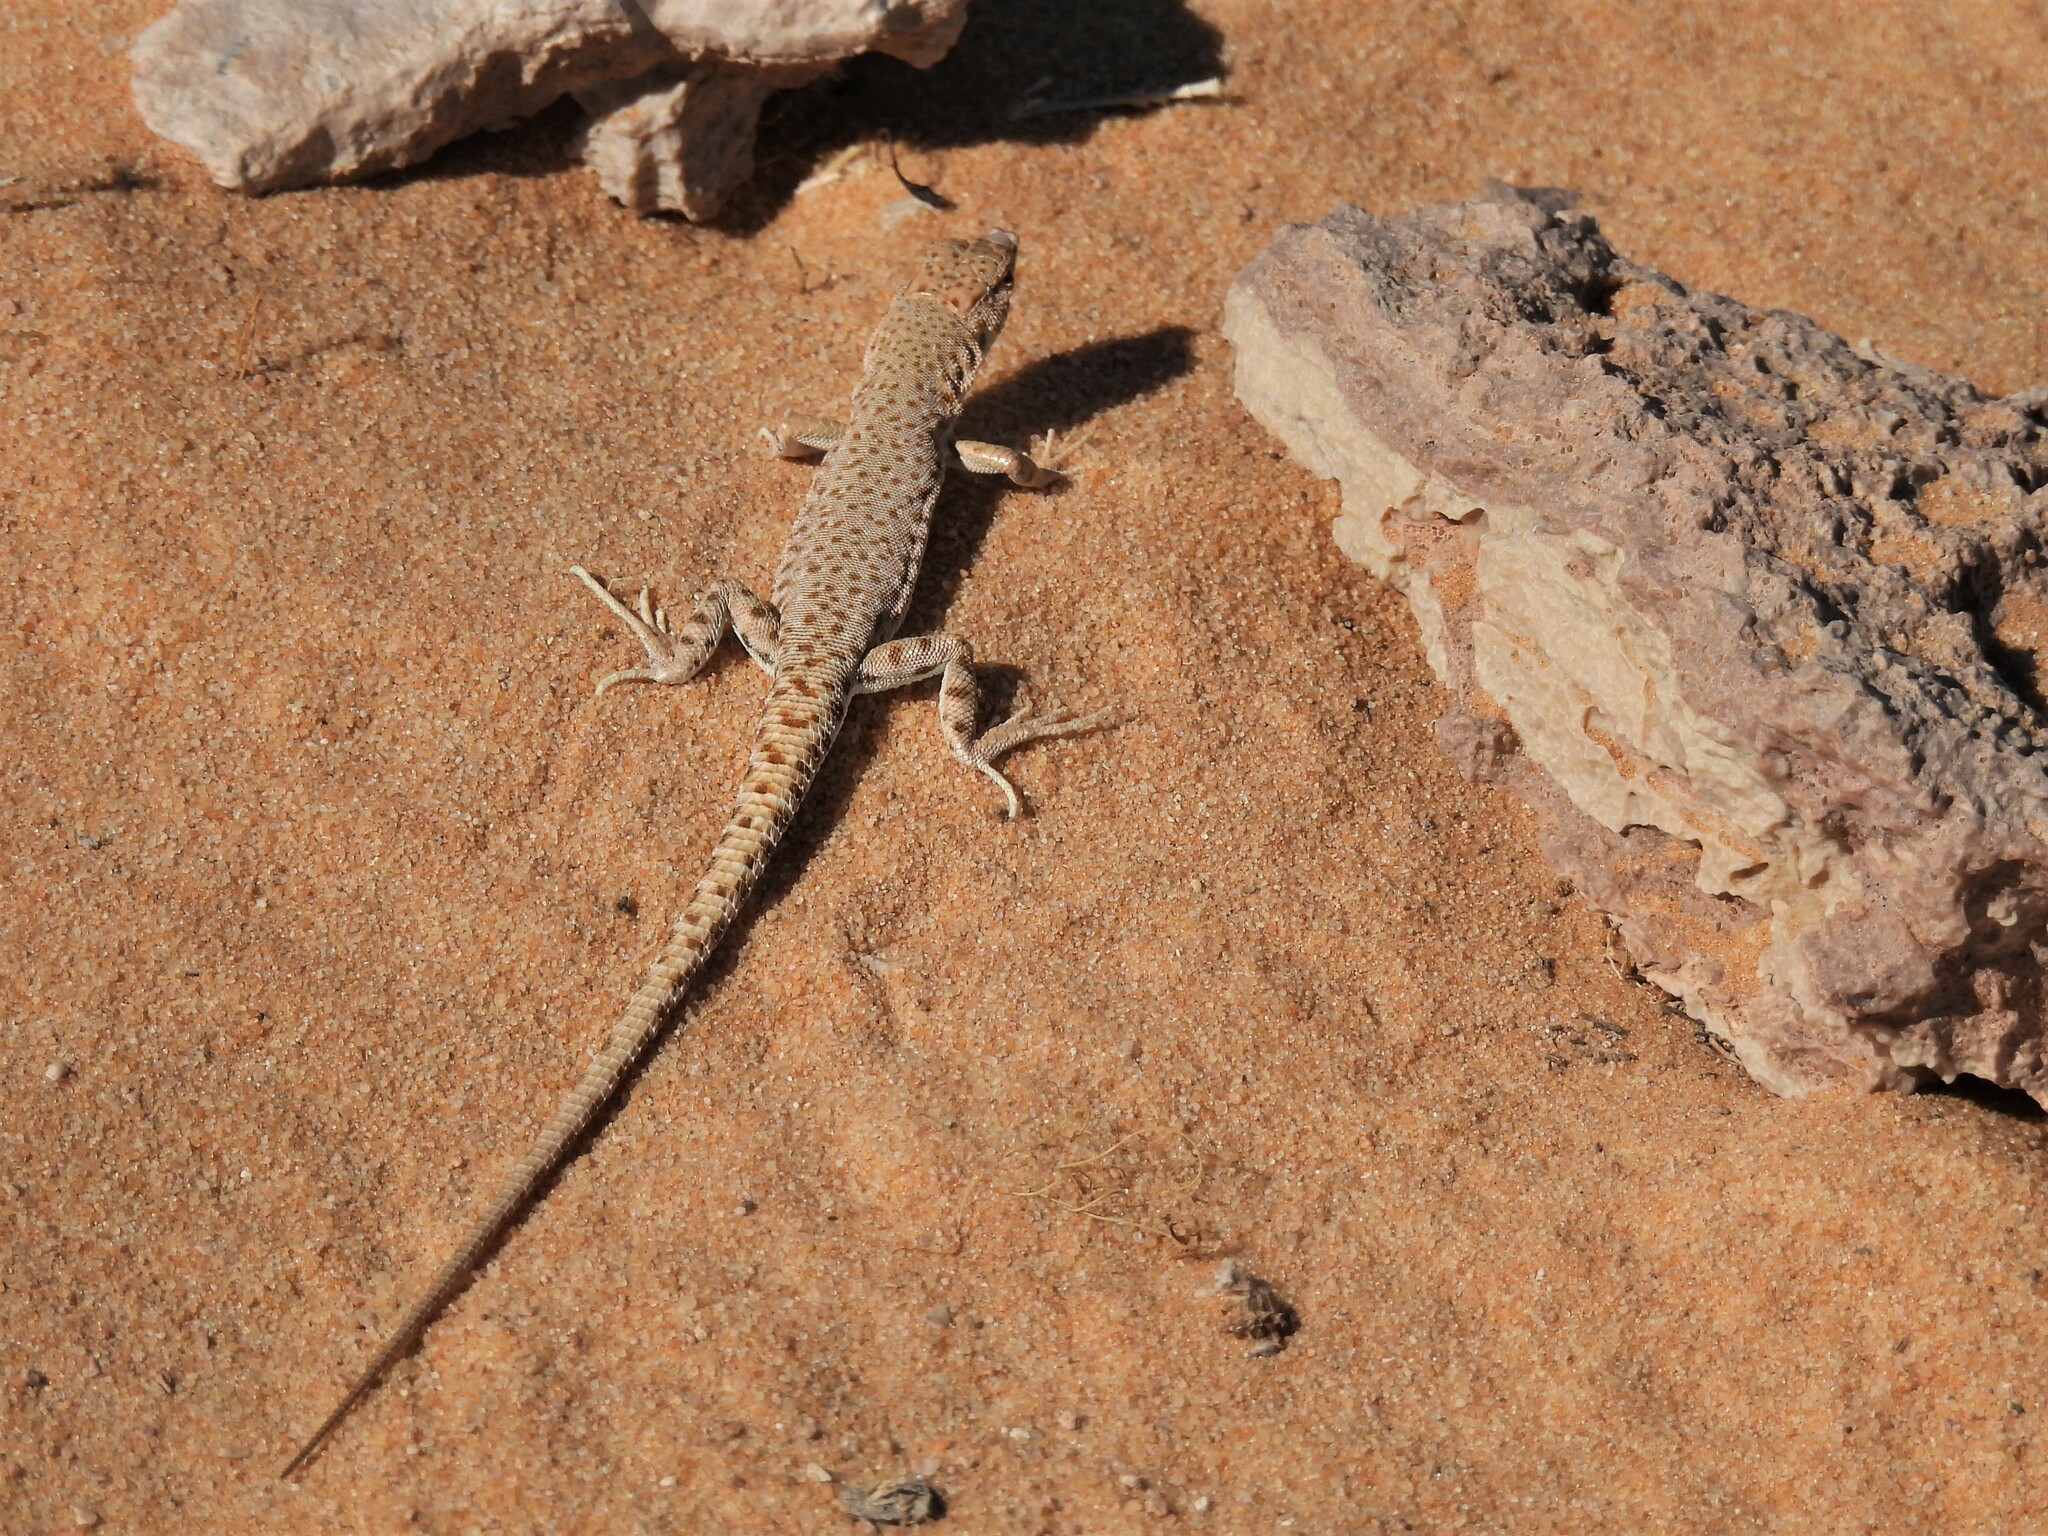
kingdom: Animalia
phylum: Chordata
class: Squamata
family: Lacertidae
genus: Mesalina
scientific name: Mesalina brevirostris
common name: Blanford's short-nosed desert lizard
